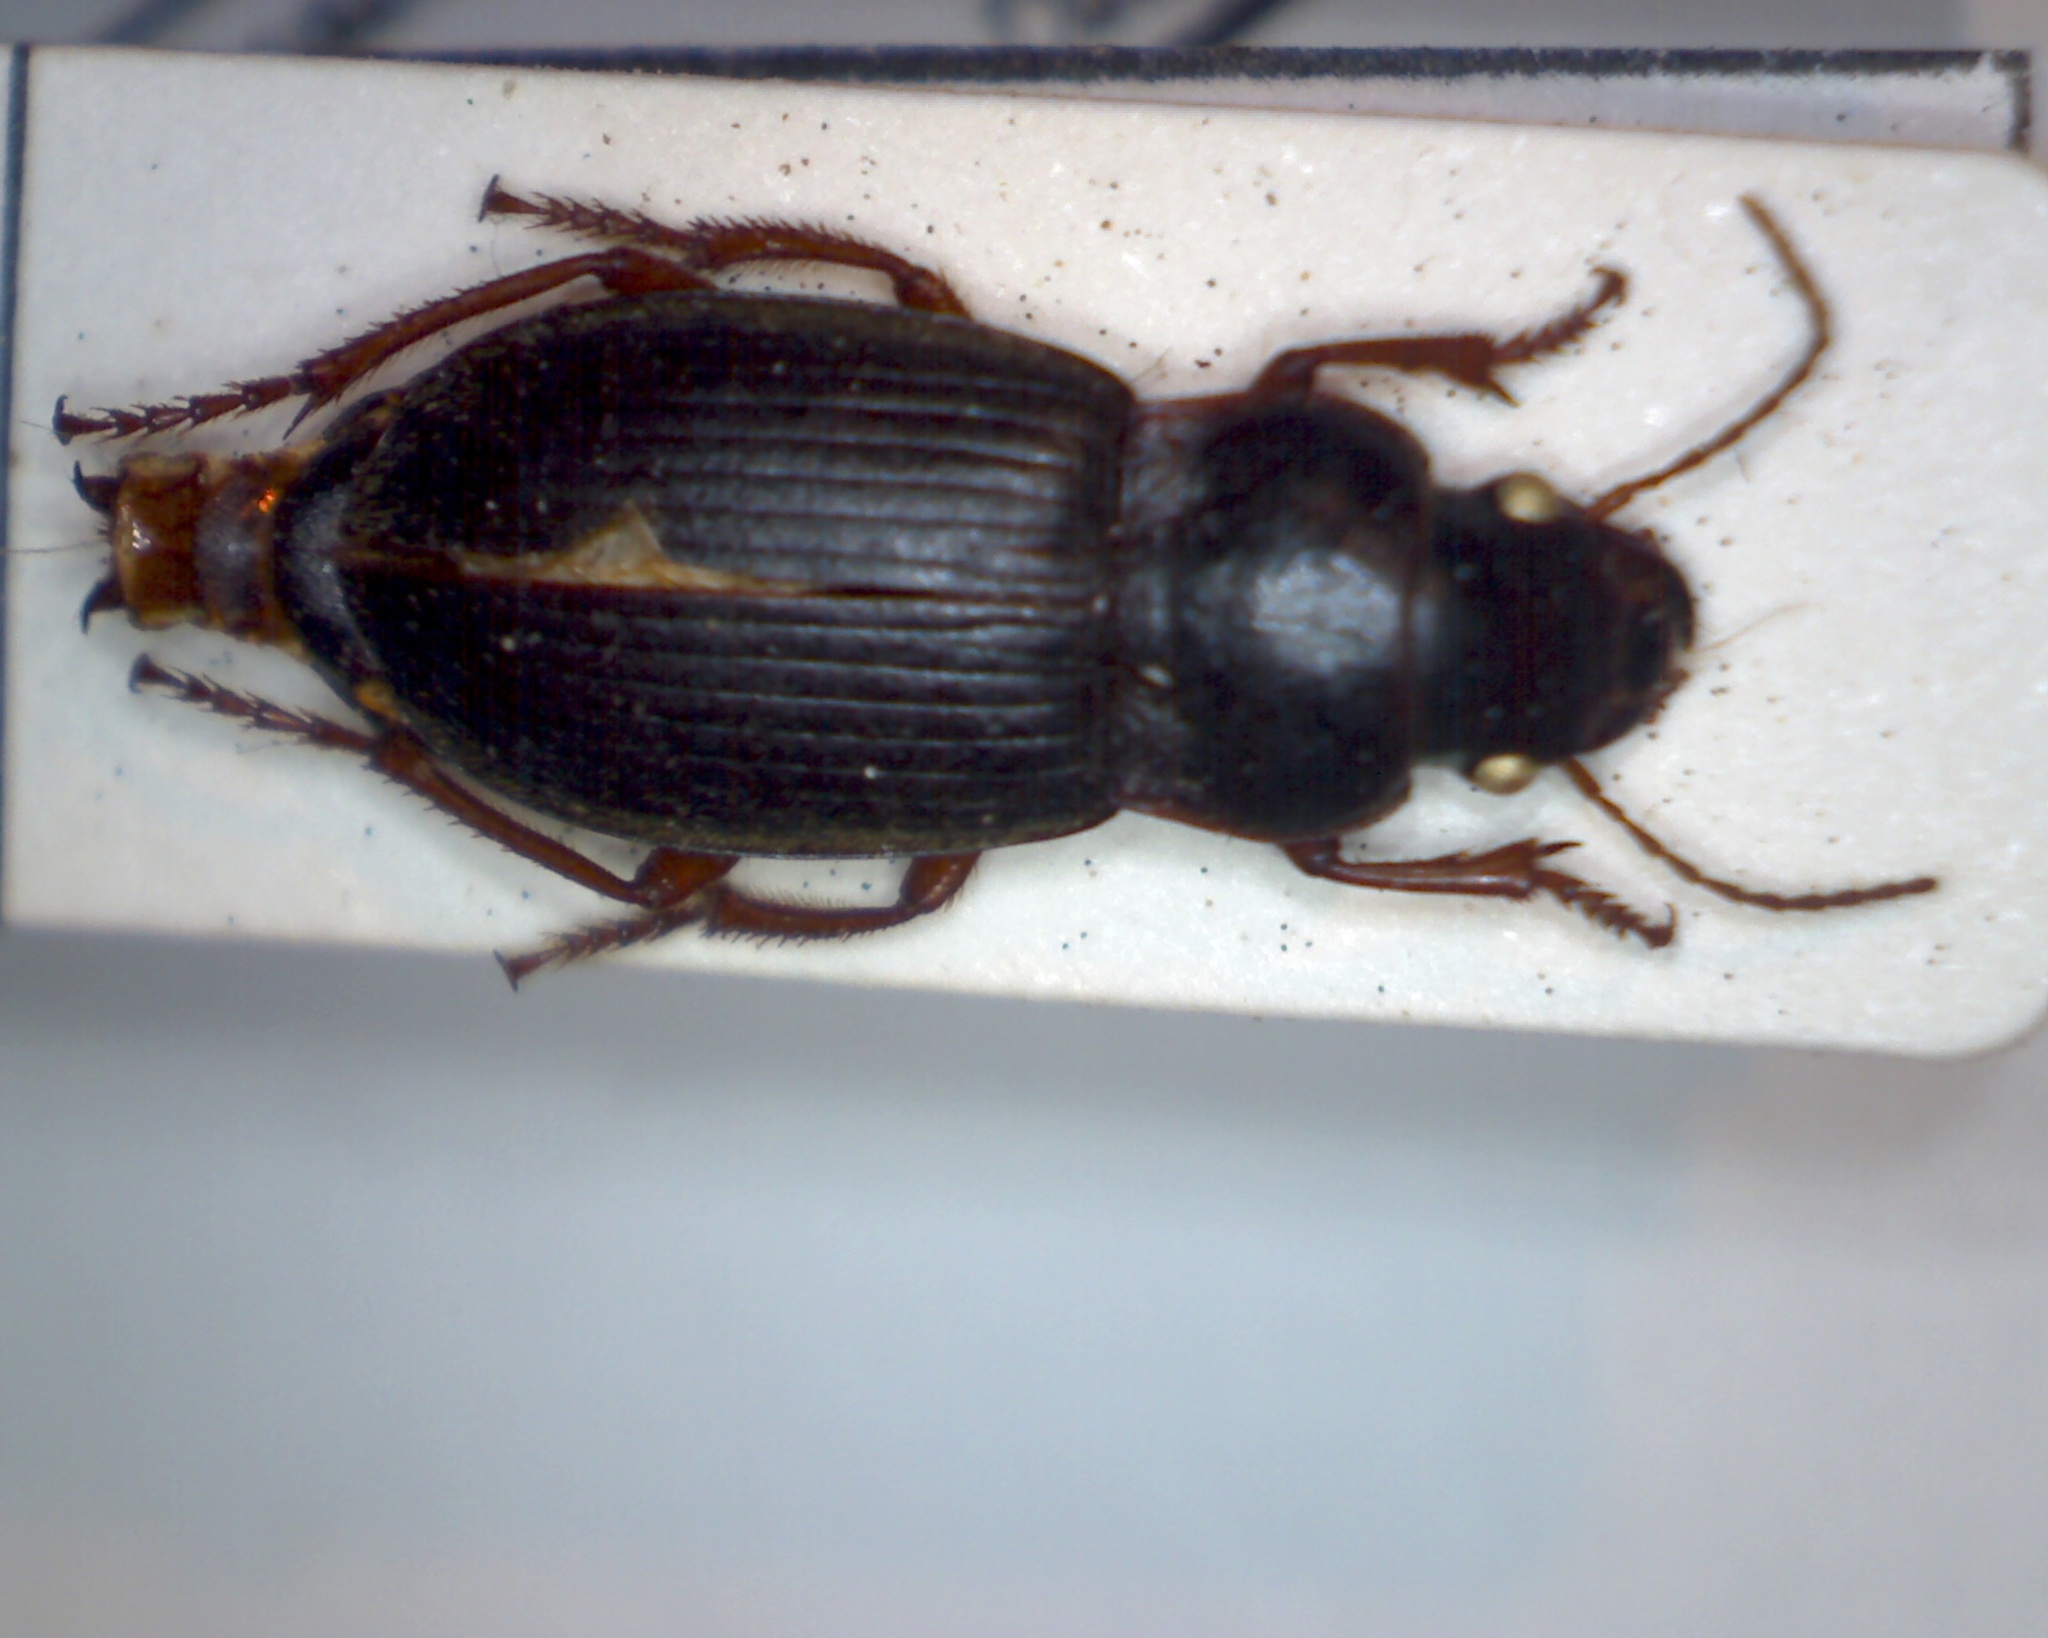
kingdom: Animalia
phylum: Arthropoda
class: Insecta
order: Coleoptera
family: Carabidae
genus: Harpalus
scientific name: Harpalus rufipes
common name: Strawberry harp ground beetle
